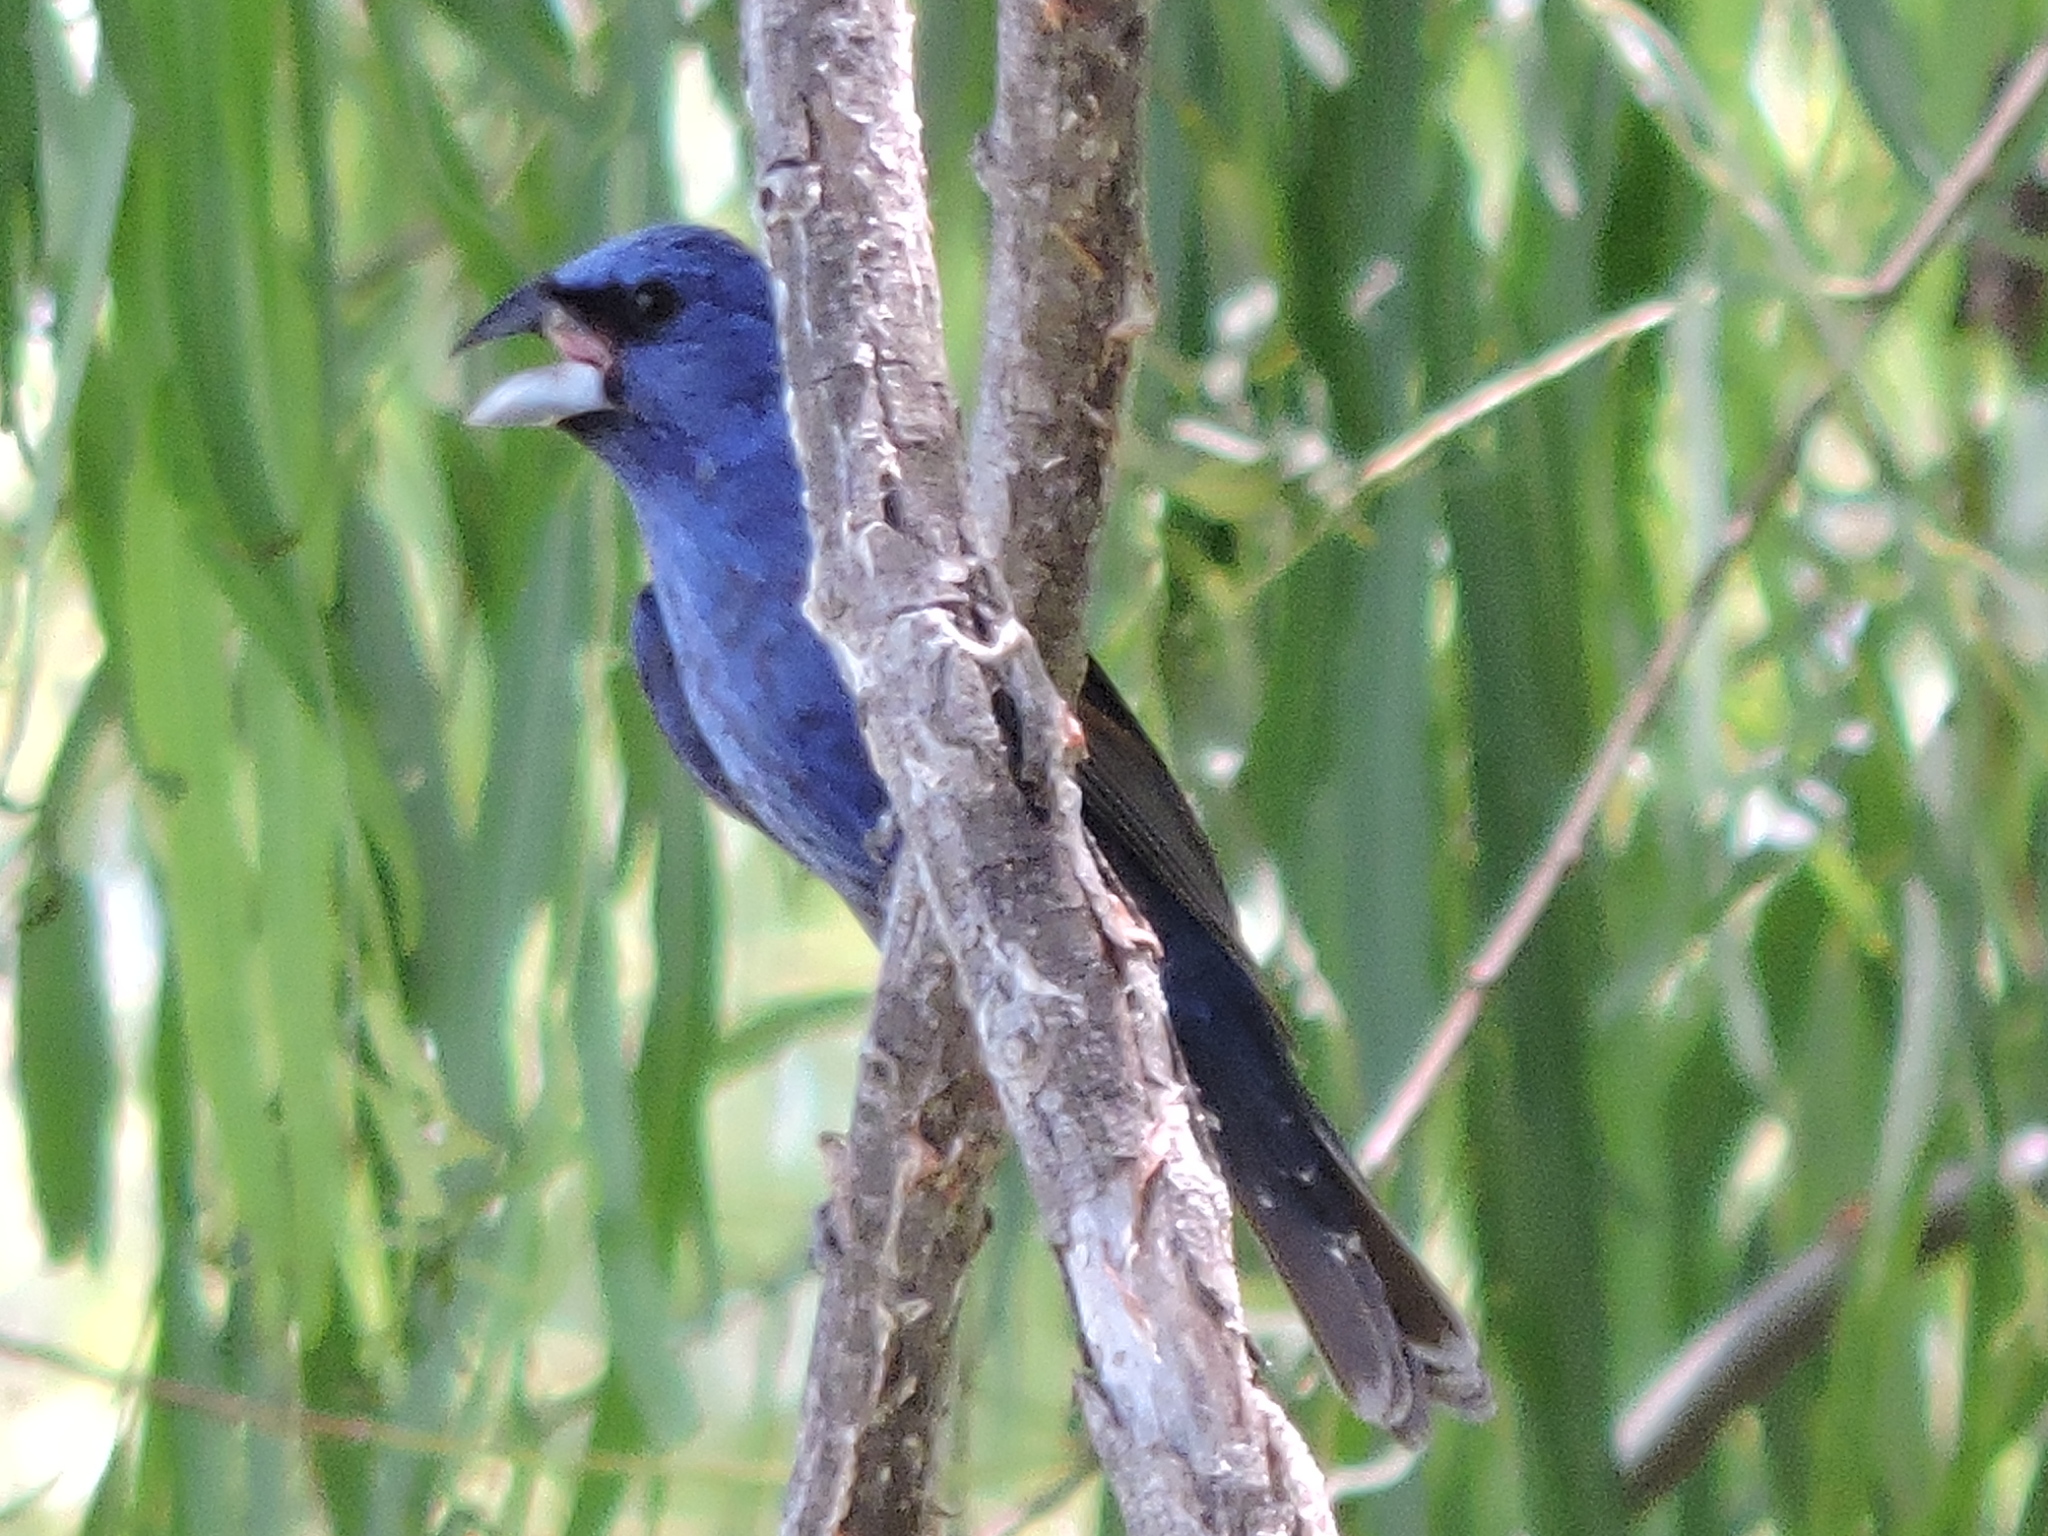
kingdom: Animalia
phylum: Chordata
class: Aves
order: Passeriformes
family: Cardinalidae
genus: Passerina
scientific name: Passerina caerulea
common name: Blue grosbeak
